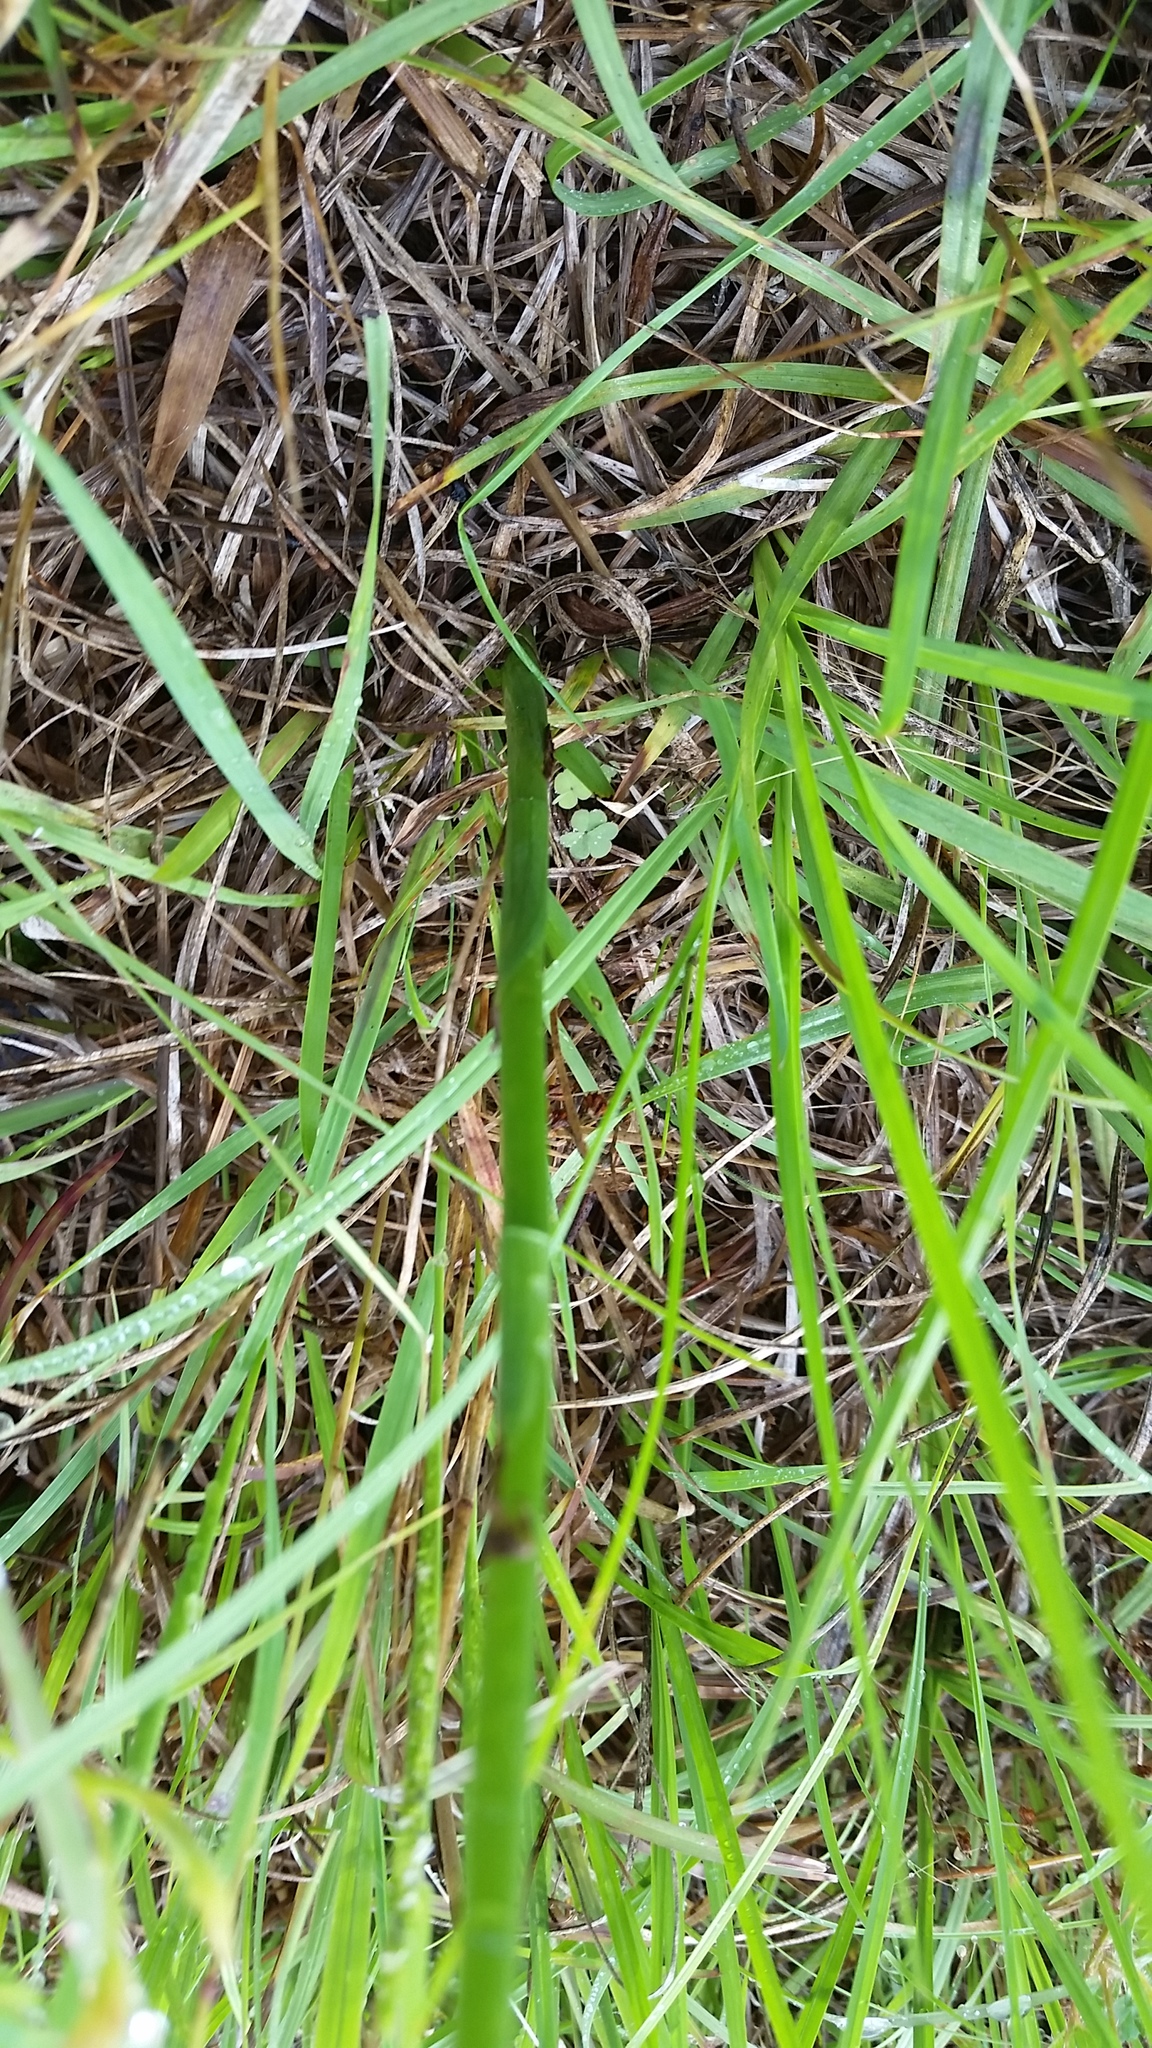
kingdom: Plantae
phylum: Tracheophyta
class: Liliopsida
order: Asparagales
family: Orchidaceae
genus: Spiranthes
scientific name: Spiranthes vernalis
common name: Spring ladies'-tresses
